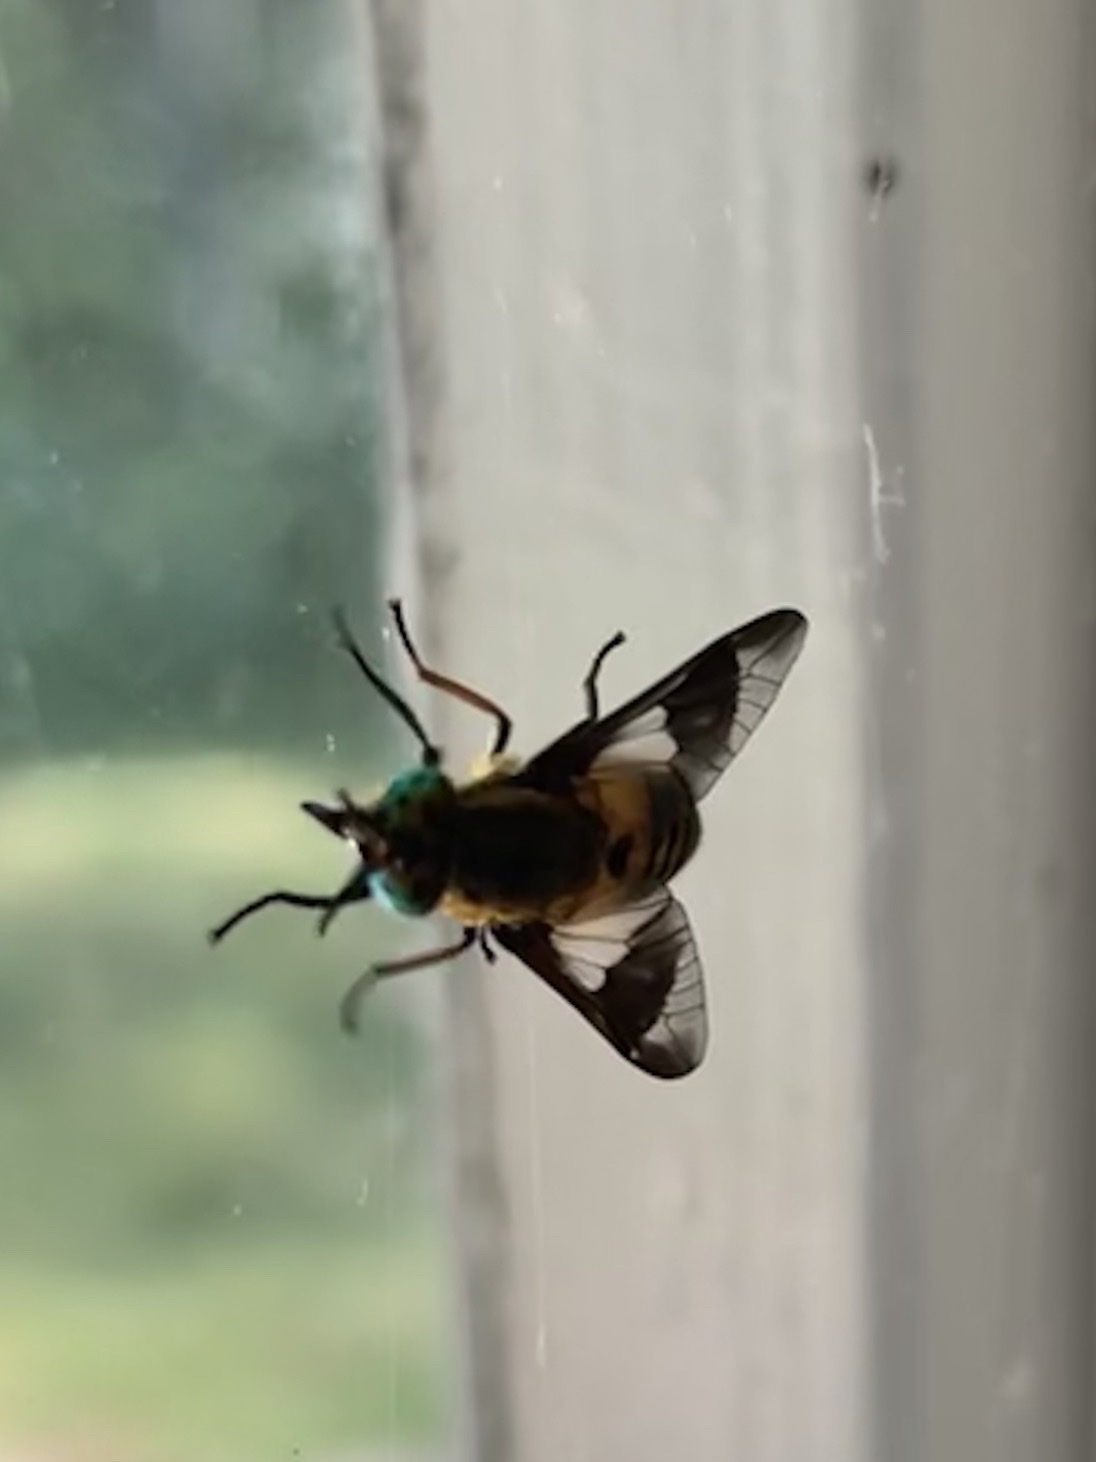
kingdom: Animalia
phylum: Arthropoda
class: Insecta
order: Diptera
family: Tabanidae
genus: Chrysops
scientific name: Chrysops viduatus
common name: Square-spot deerfly
